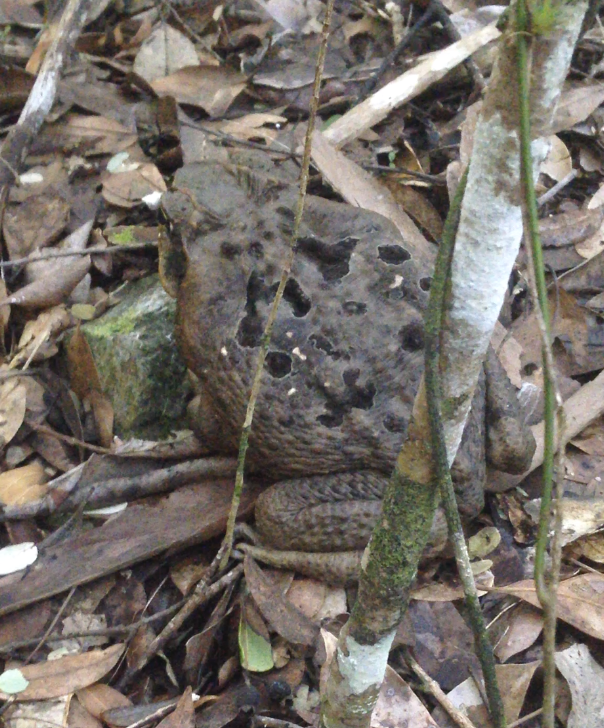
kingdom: Animalia
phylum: Chordata
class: Amphibia
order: Anura
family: Bufonidae
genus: Rhinella
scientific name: Rhinella marina
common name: Cane toad
